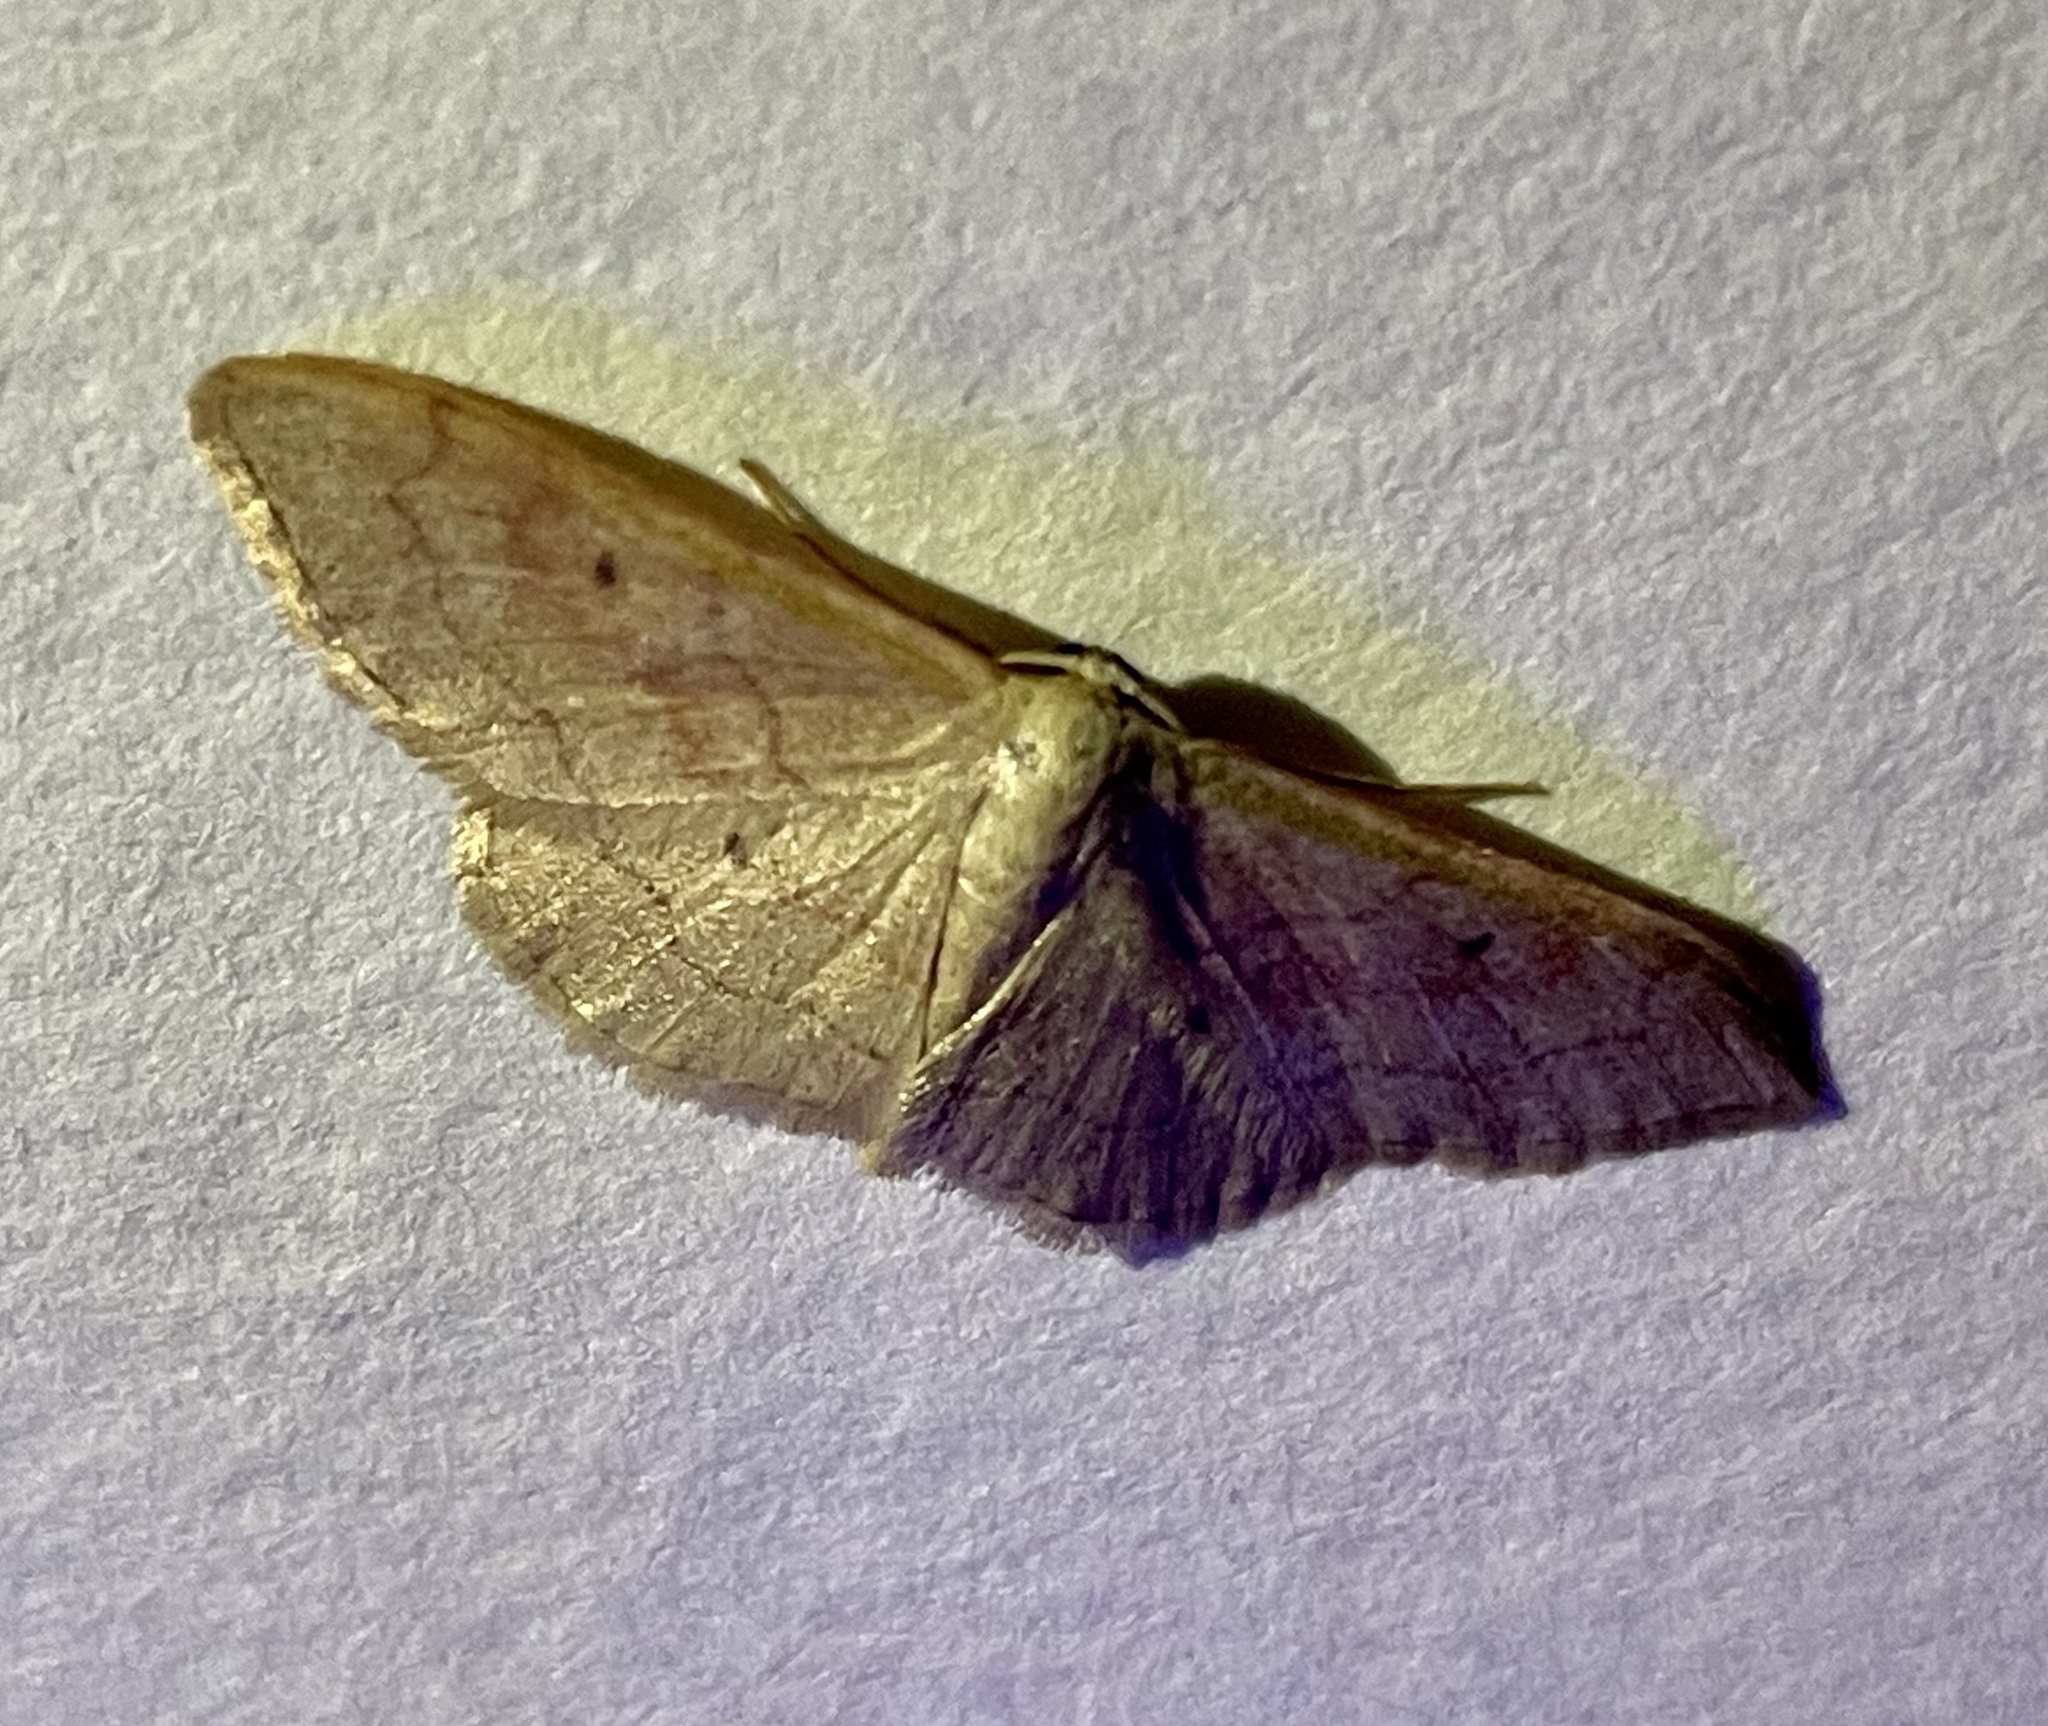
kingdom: Animalia
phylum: Arthropoda
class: Insecta
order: Lepidoptera
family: Geometridae
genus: Idaea
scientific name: Idaea bilinearia
